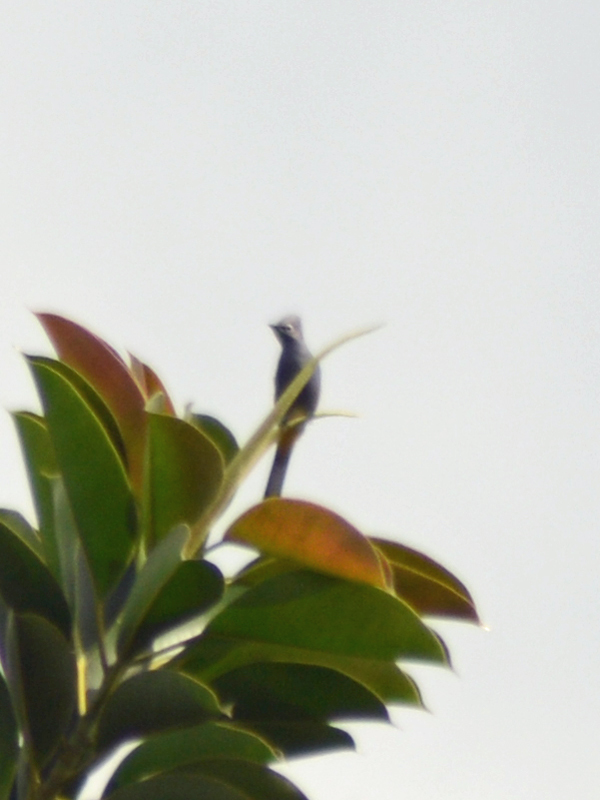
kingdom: Animalia
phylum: Chordata
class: Aves
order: Passeriformes
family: Ptilogonatidae
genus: Ptilogonys
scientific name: Ptilogonys cinereus
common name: Gray silky-flycatcher
